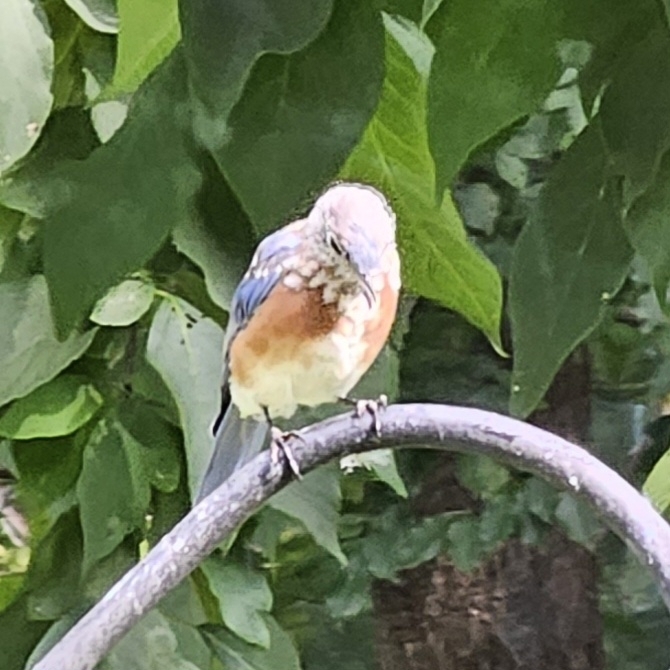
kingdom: Animalia
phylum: Chordata
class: Aves
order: Passeriformes
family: Turdidae
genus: Sialia
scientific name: Sialia sialis
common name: Eastern bluebird
